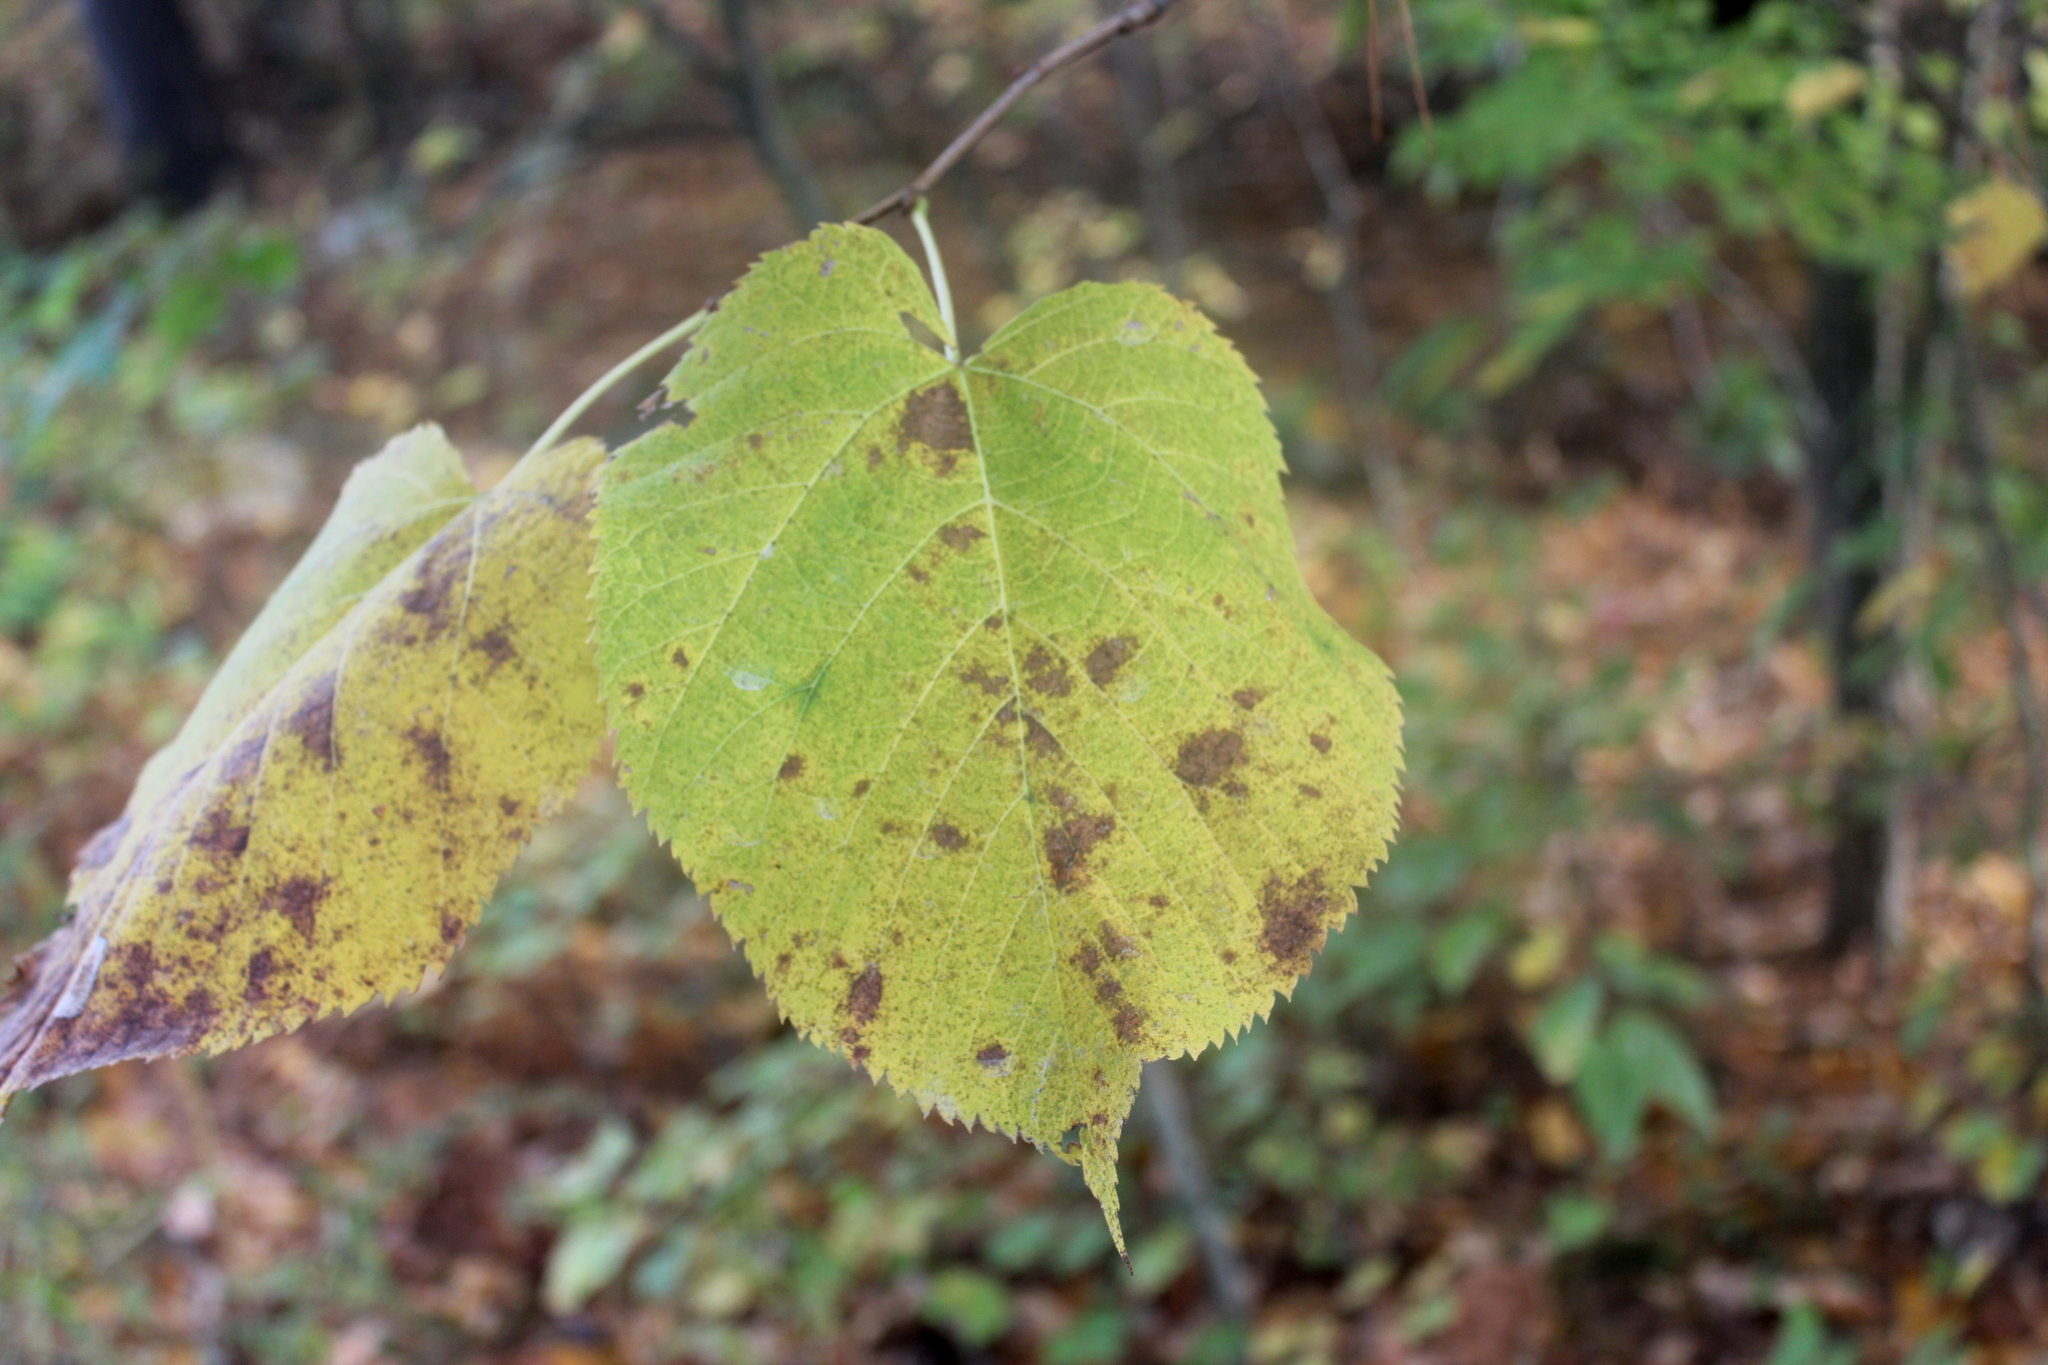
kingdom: Plantae
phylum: Tracheophyta
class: Magnoliopsida
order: Malvales
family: Malvaceae
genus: Tilia
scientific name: Tilia americana
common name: Basswood
